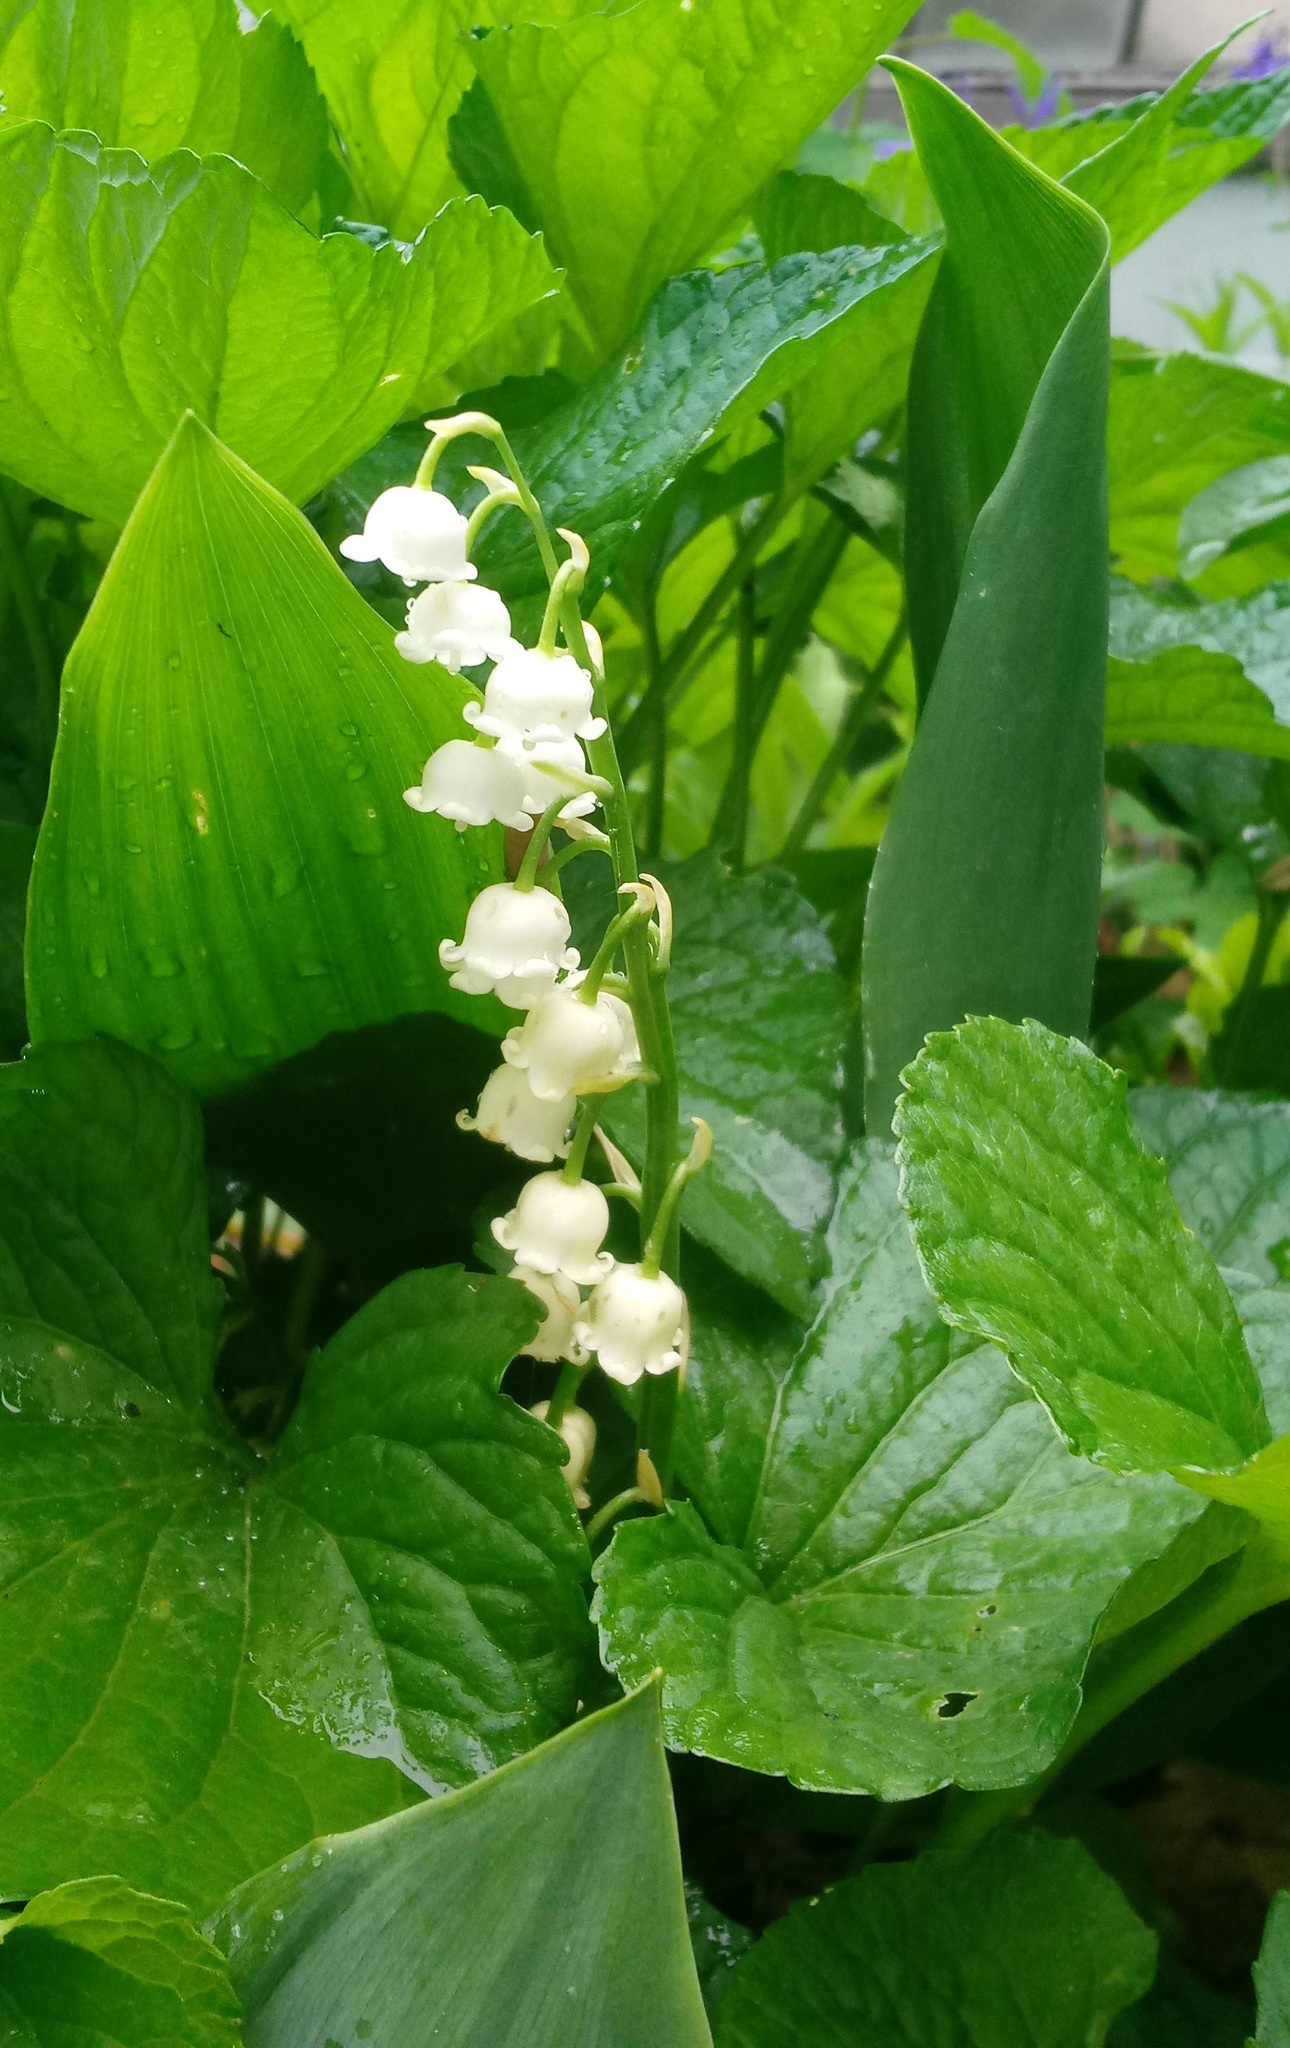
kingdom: Plantae
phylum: Tracheophyta
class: Liliopsida
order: Asparagales
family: Asparagaceae
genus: Convallaria
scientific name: Convallaria majalis
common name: Lily-of-the-valley
